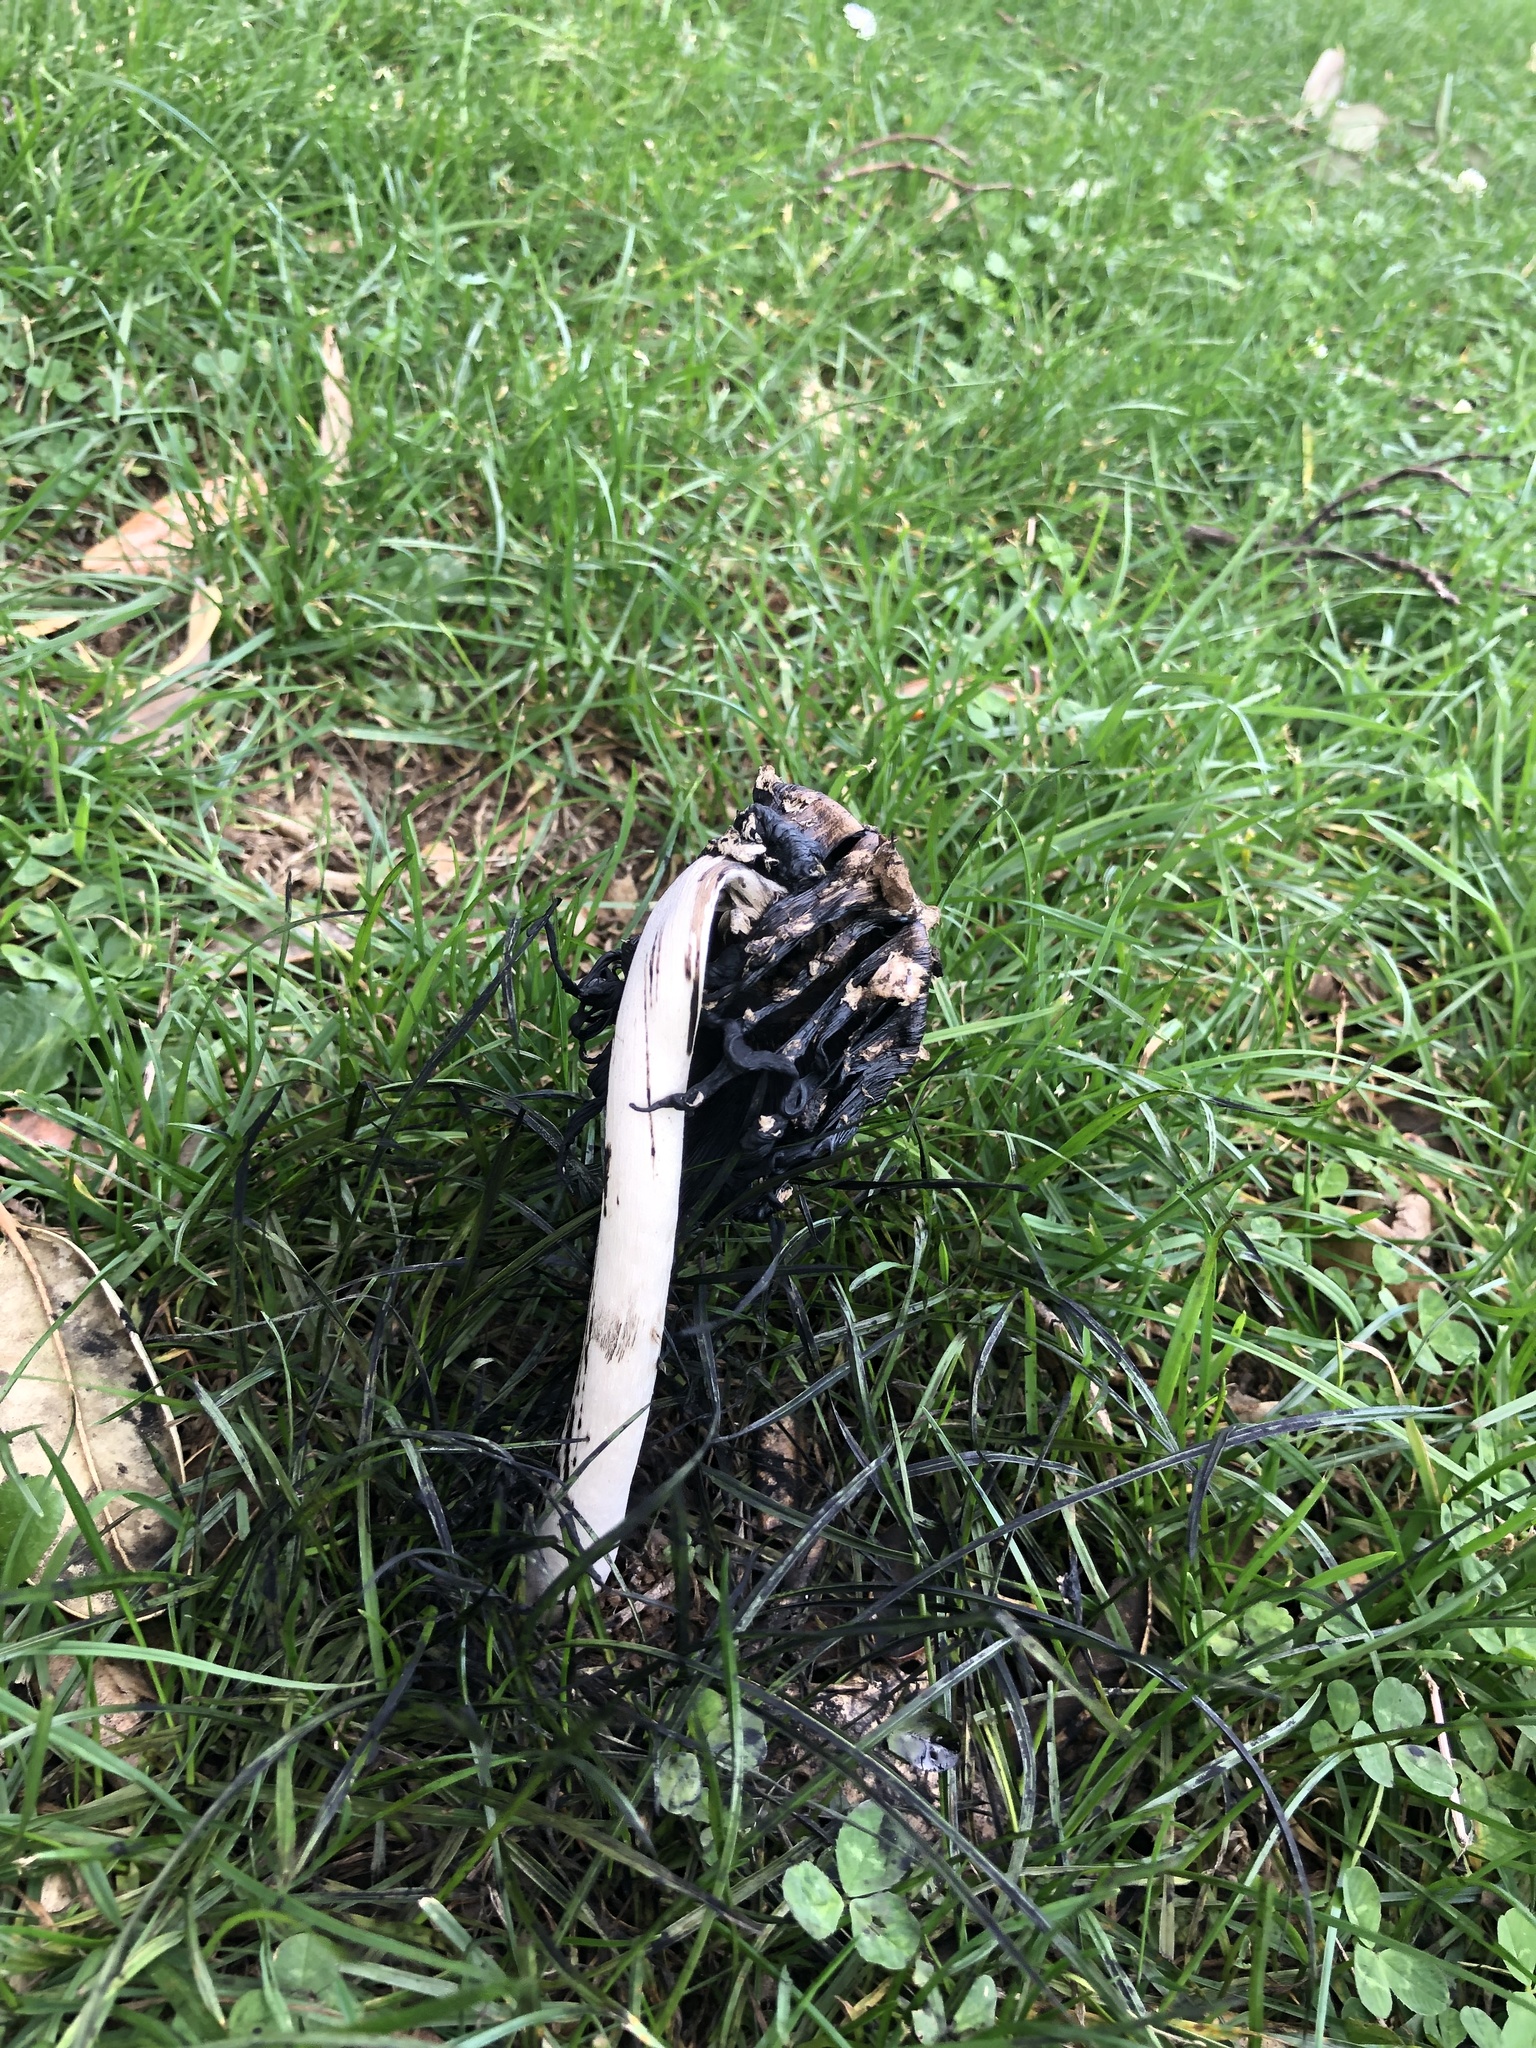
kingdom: Fungi
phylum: Basidiomycota
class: Agaricomycetes
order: Agaricales
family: Agaricaceae
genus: Coprinus
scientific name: Coprinus comatus
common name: Lawyer's wig
